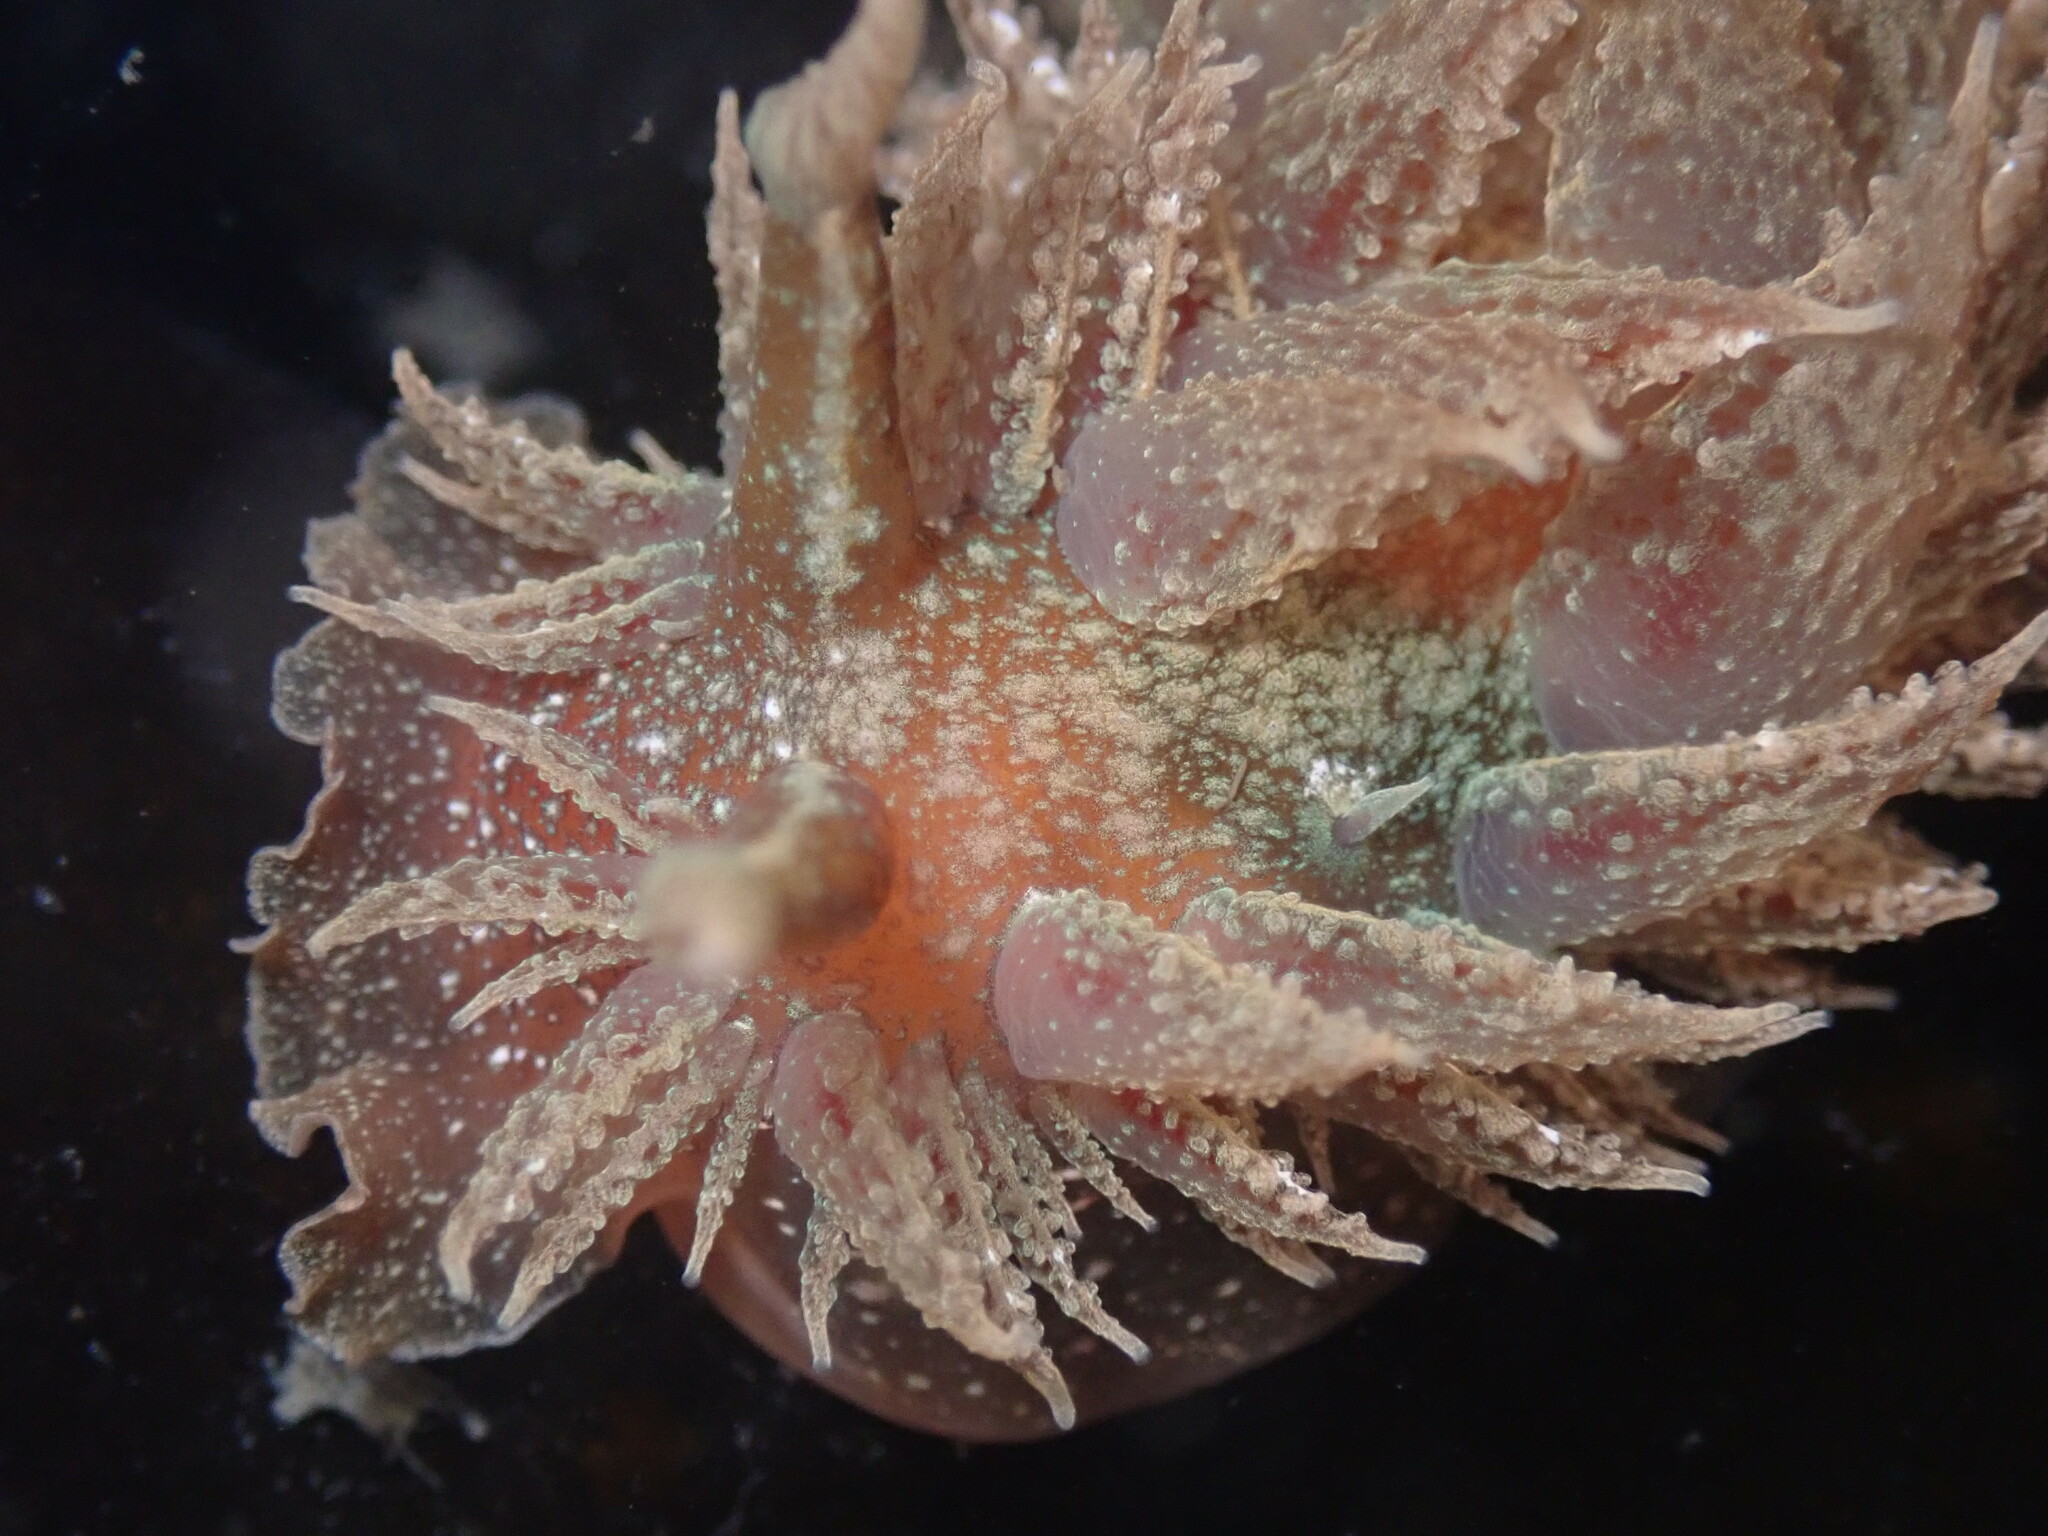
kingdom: Animalia
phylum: Mollusca
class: Gastropoda
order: Nudibranchia
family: Dironidae
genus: Dirona
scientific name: Dirona picta
